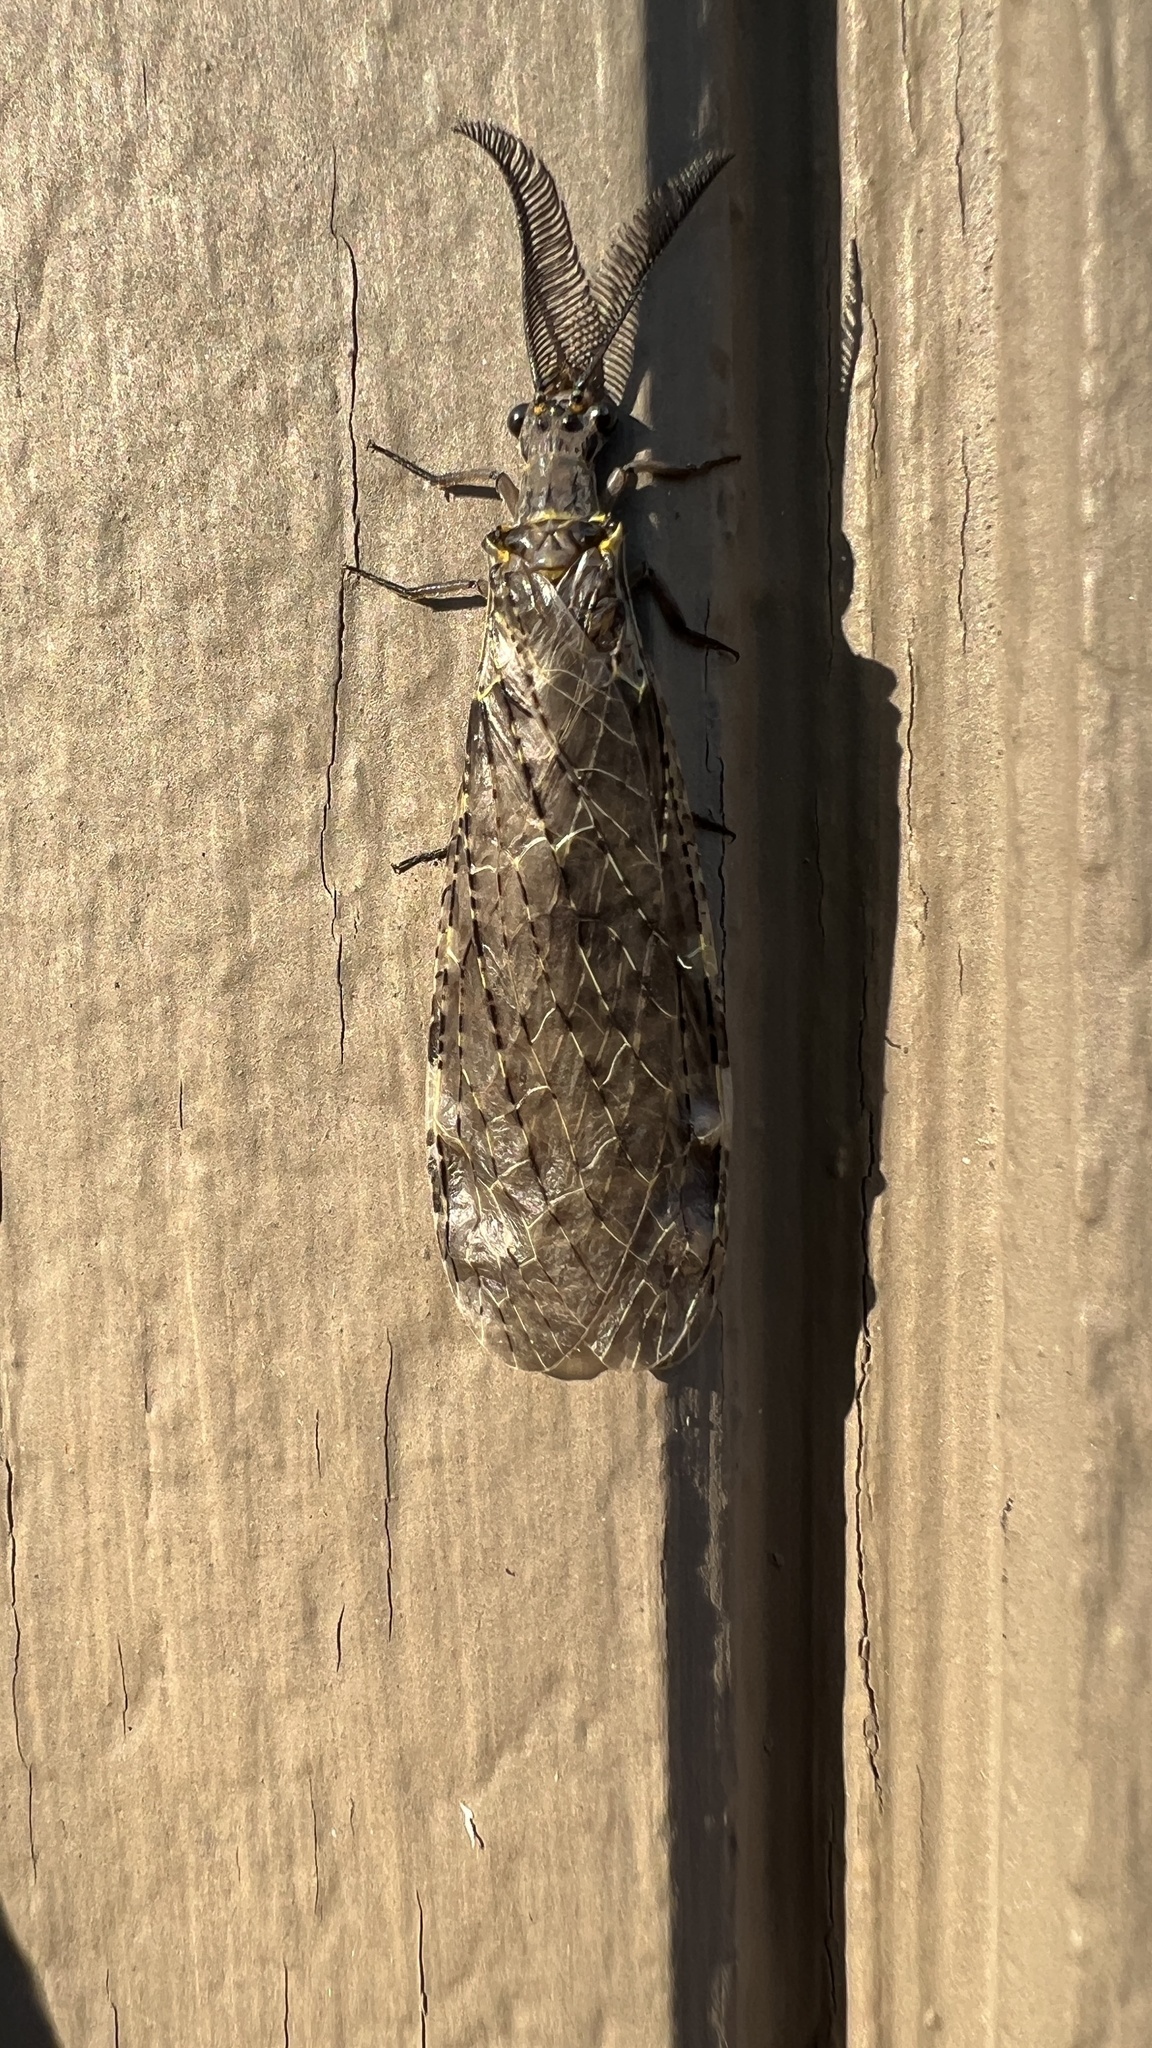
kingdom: Animalia
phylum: Arthropoda
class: Insecta
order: Megaloptera
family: Corydalidae
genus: Chauliodes
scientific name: Chauliodes rastricornis
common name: Spring fishfly
